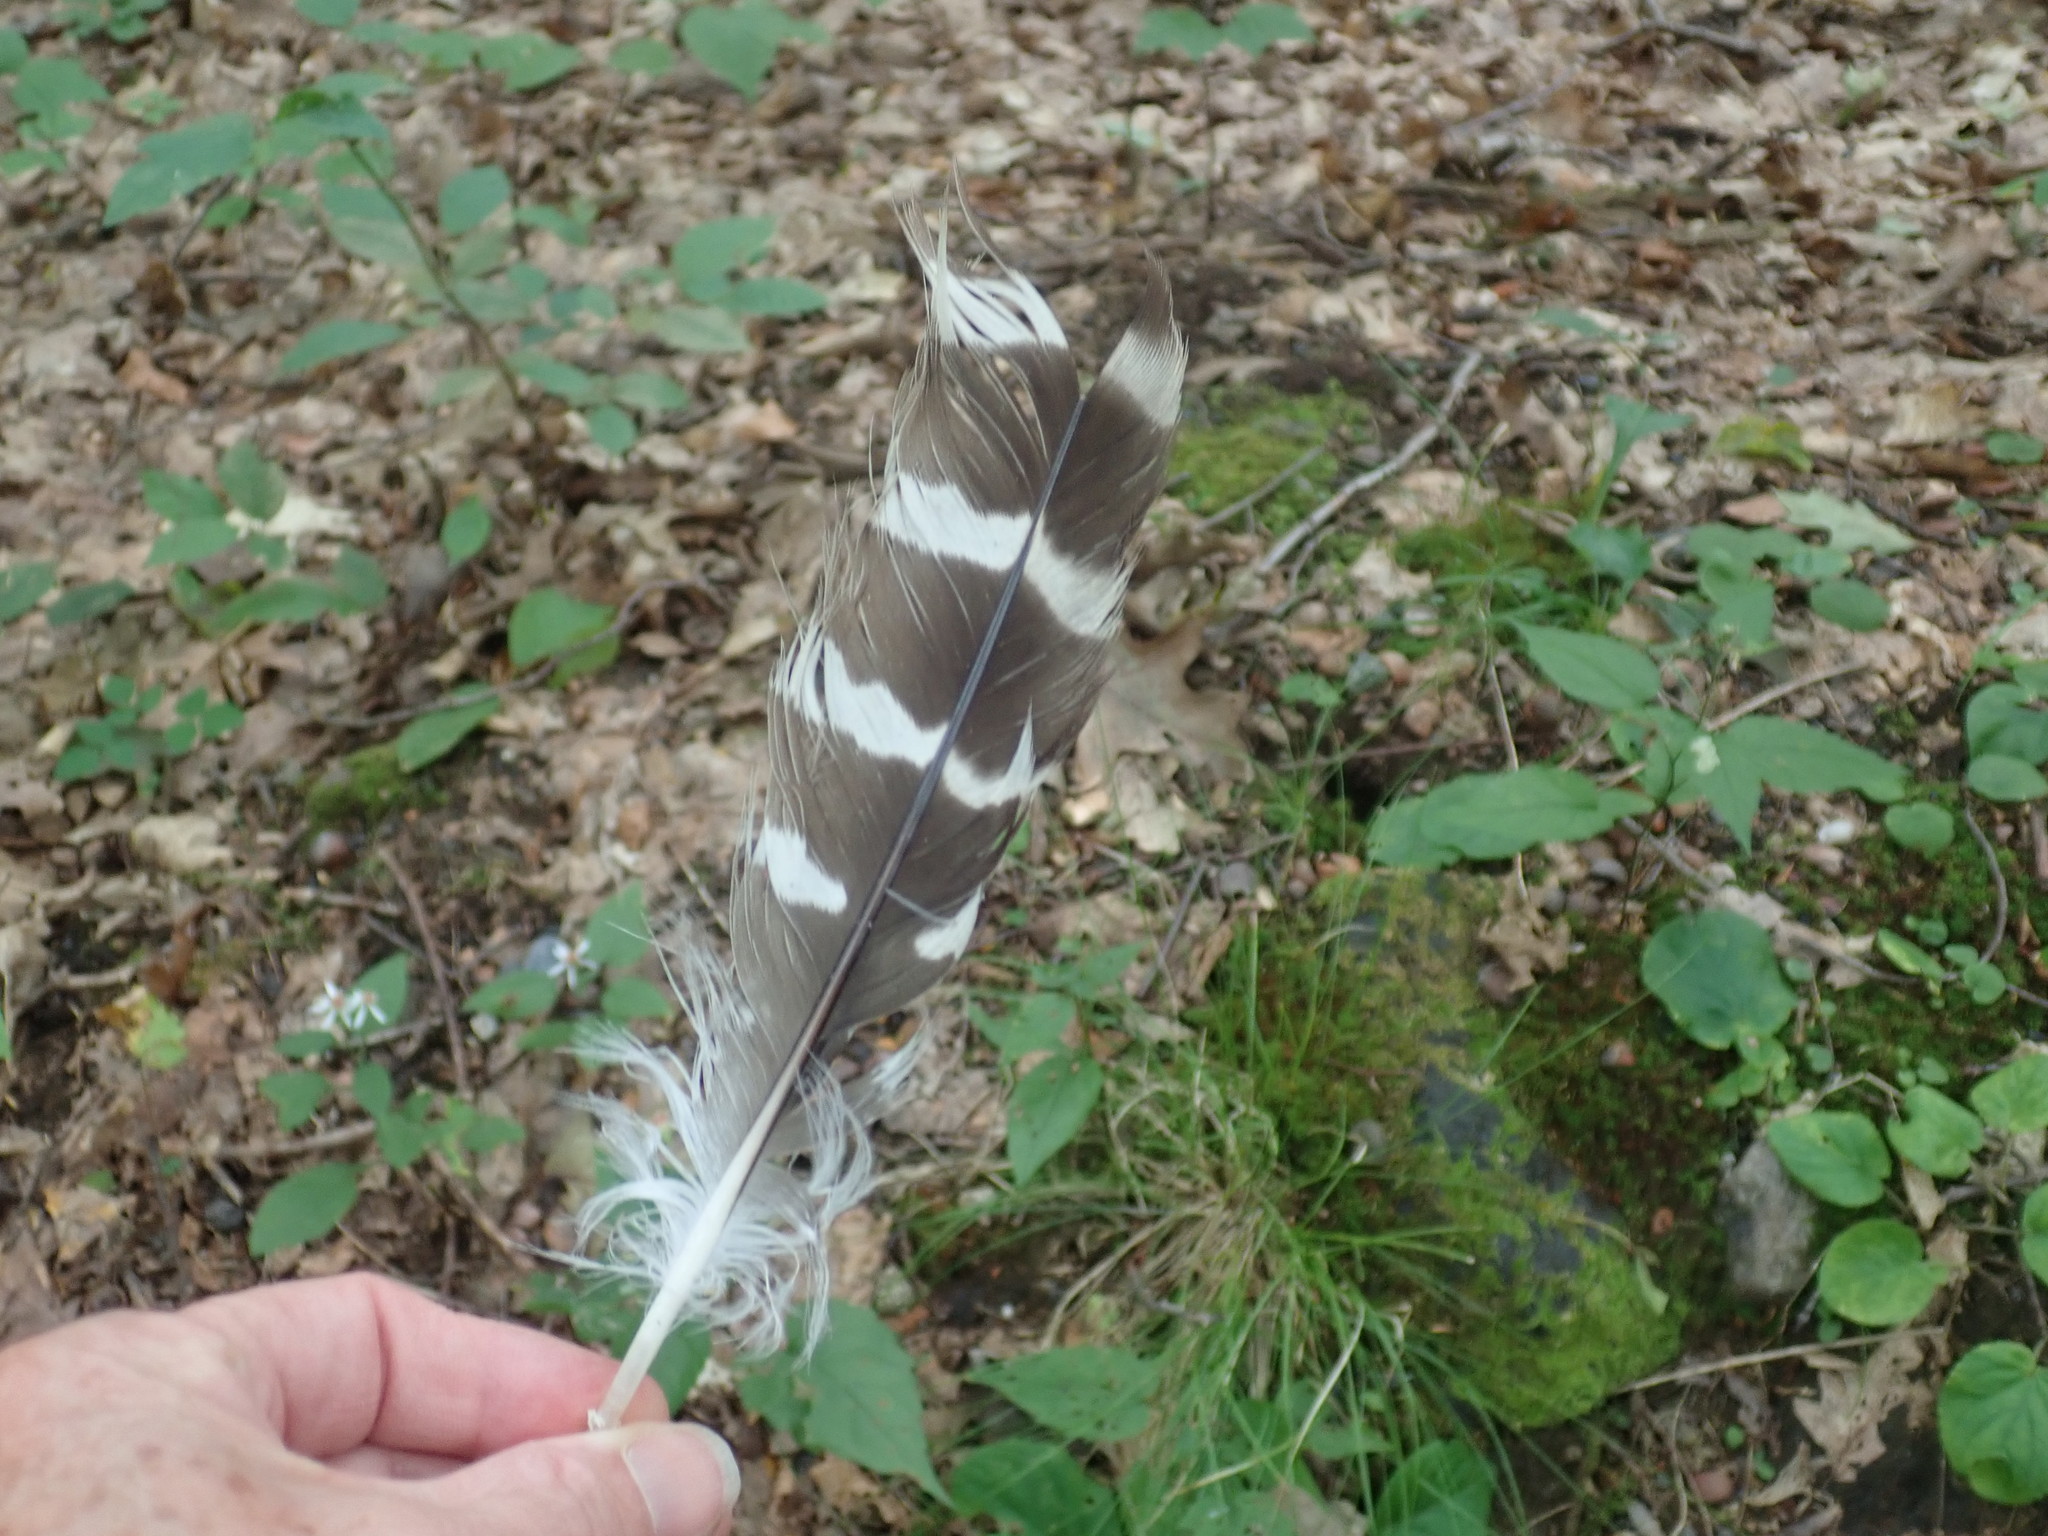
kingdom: Animalia
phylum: Chordata
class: Aves
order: Accipitriformes
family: Accipitridae
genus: Buteo
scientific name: Buteo lineatus
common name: Red-shouldered hawk
